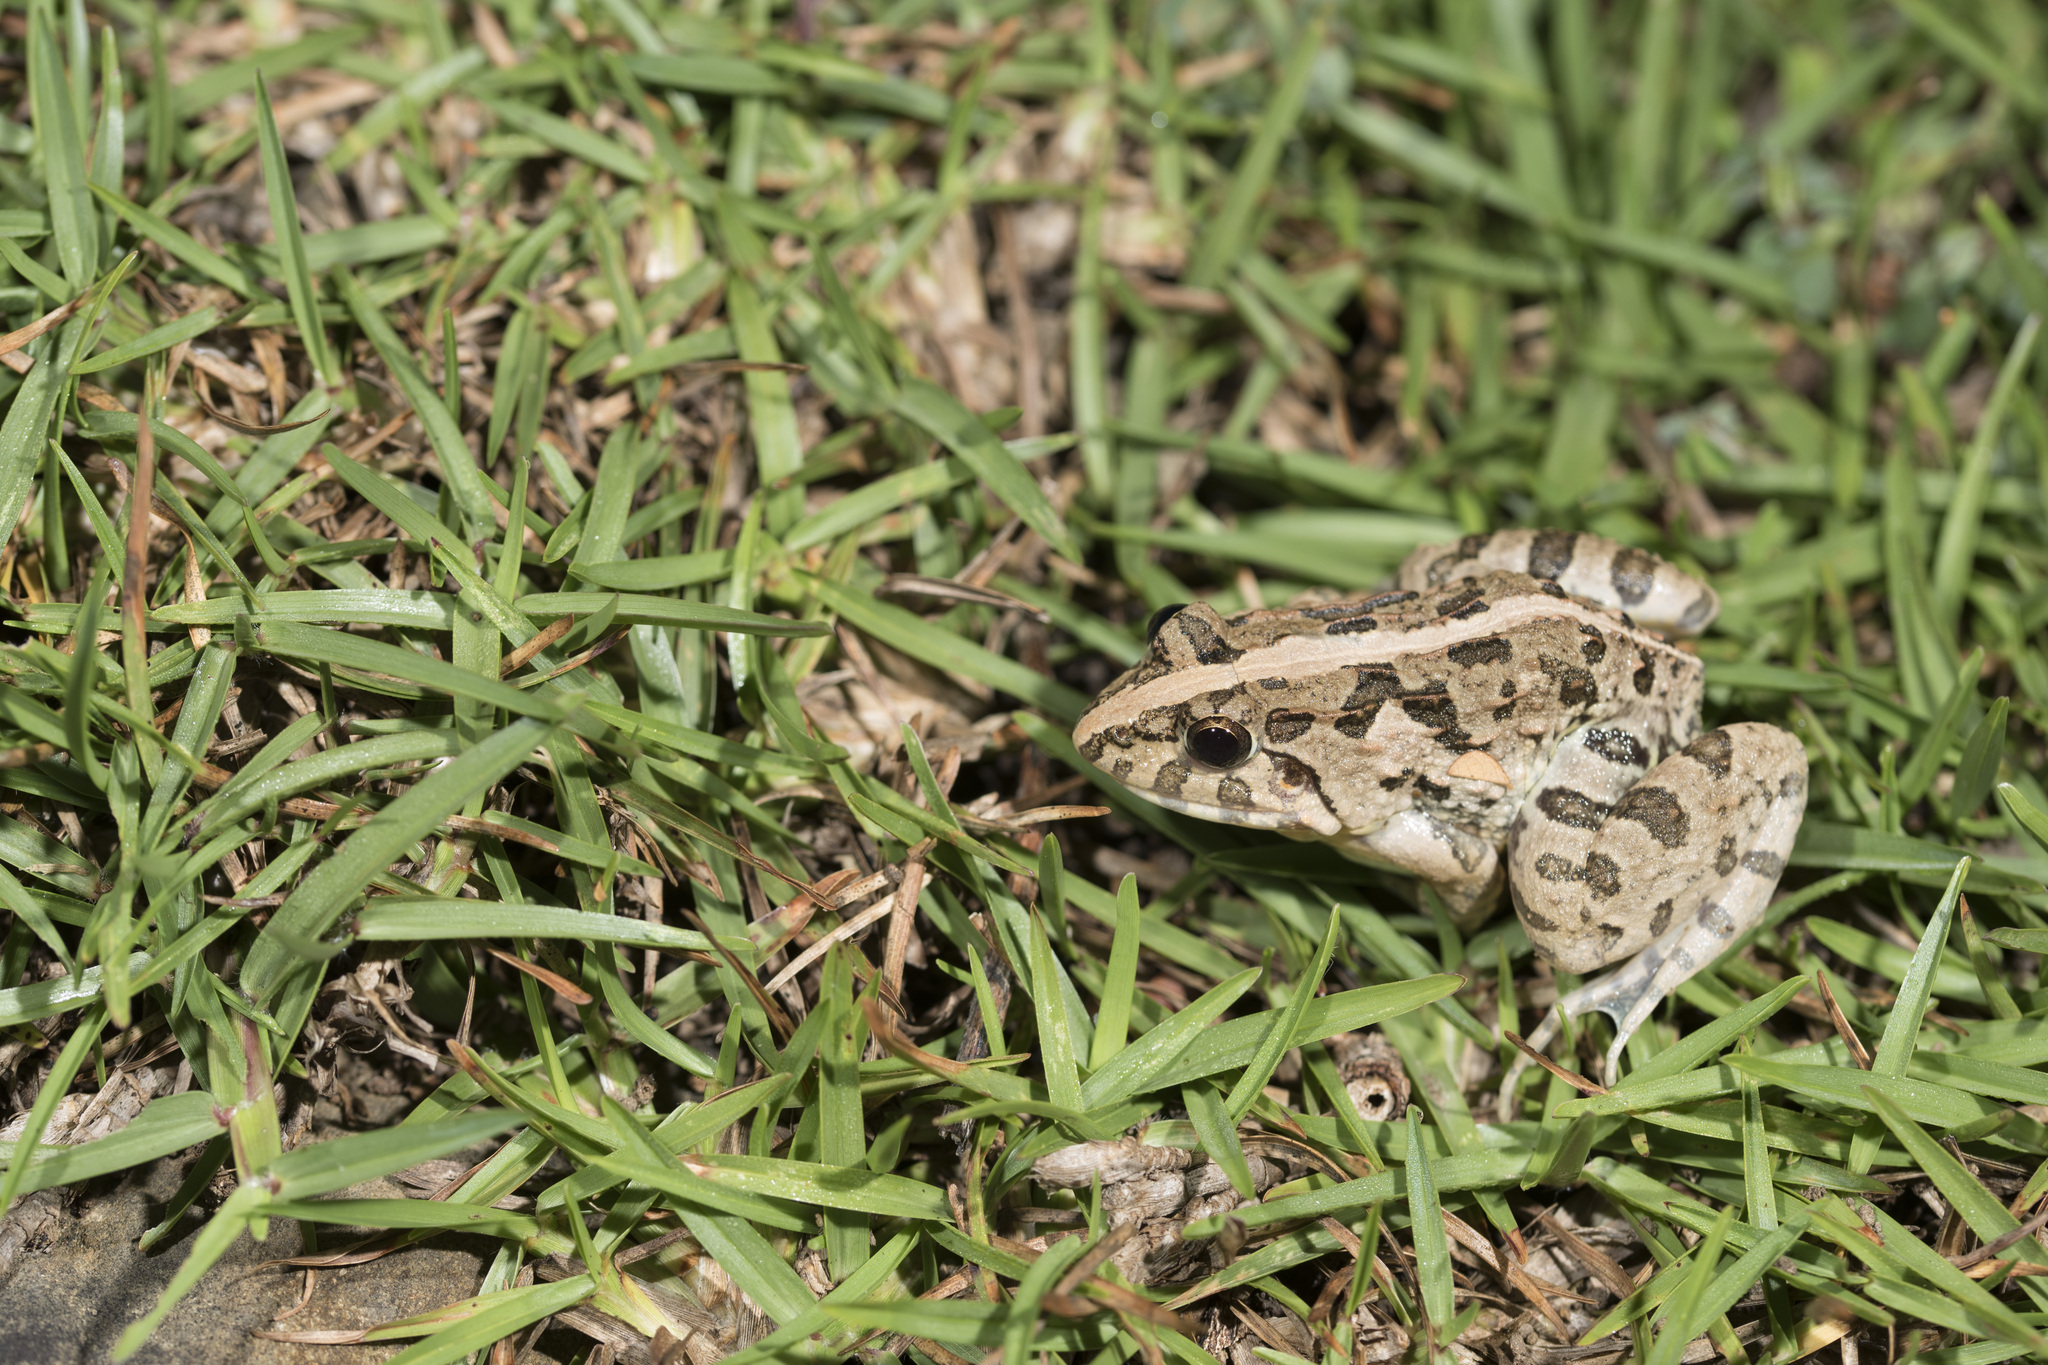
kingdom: Animalia
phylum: Chordata
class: Amphibia
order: Anura
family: Dicroglossidae
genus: Fejervarya
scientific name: Fejervarya limnocharis
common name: Asian grass frog/common pond frog/field frog/grass frog/indian rice frog
